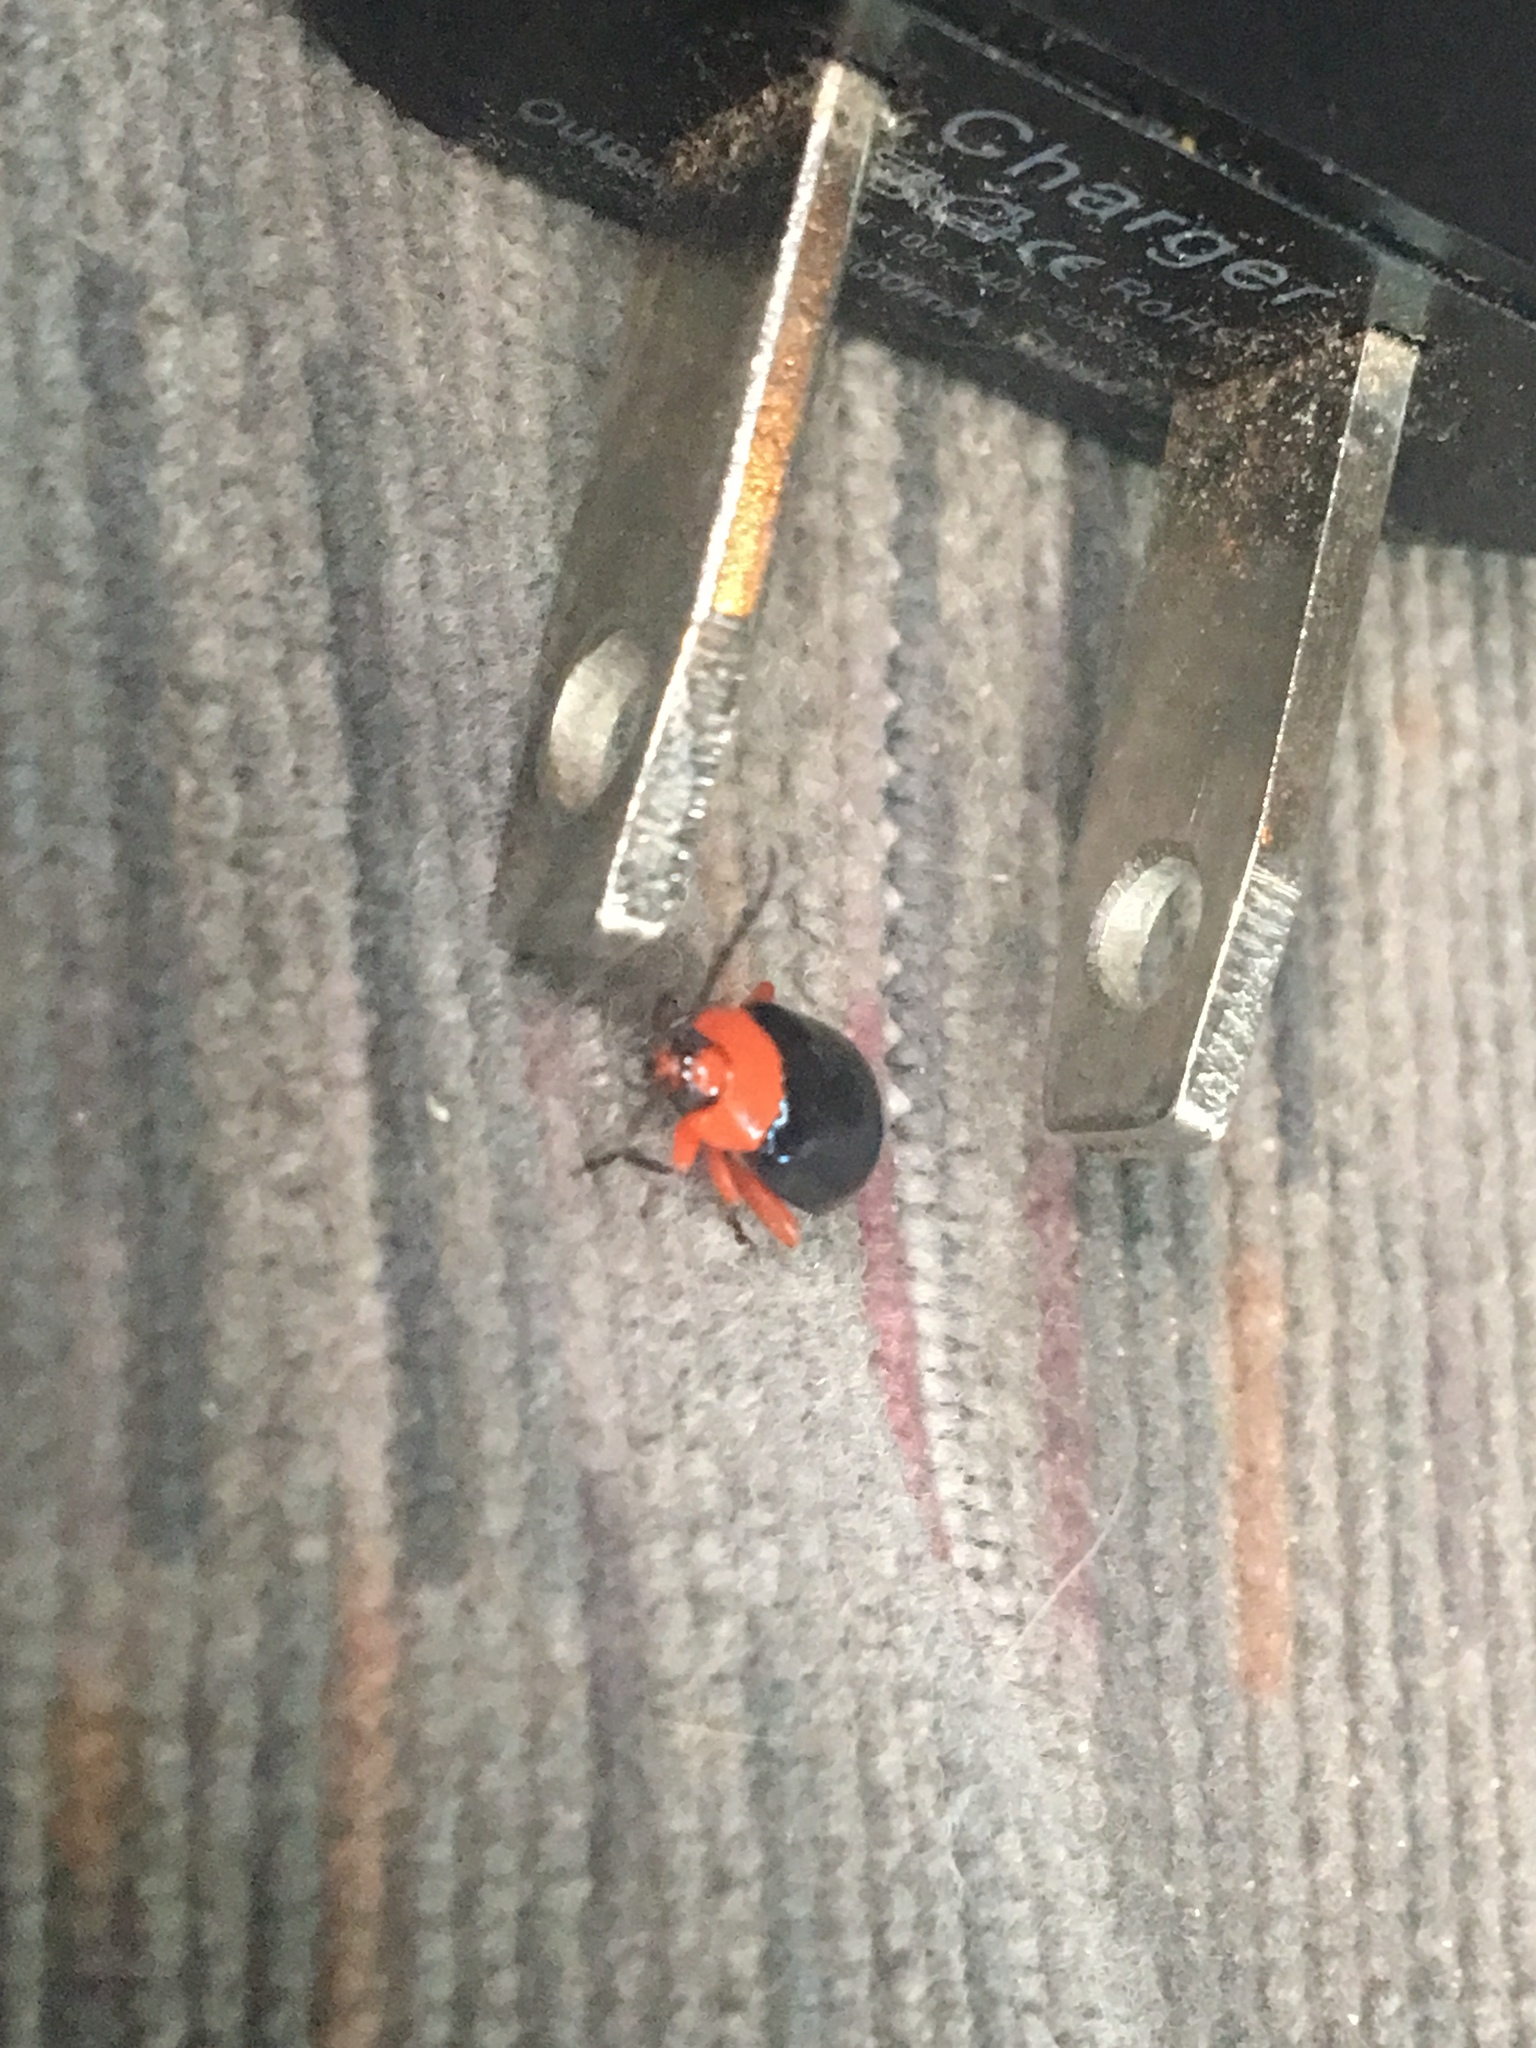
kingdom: Animalia
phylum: Arthropoda
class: Insecta
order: Coleoptera
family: Chrysomelidae
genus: Asphaera
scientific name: Asphaera lustrans
